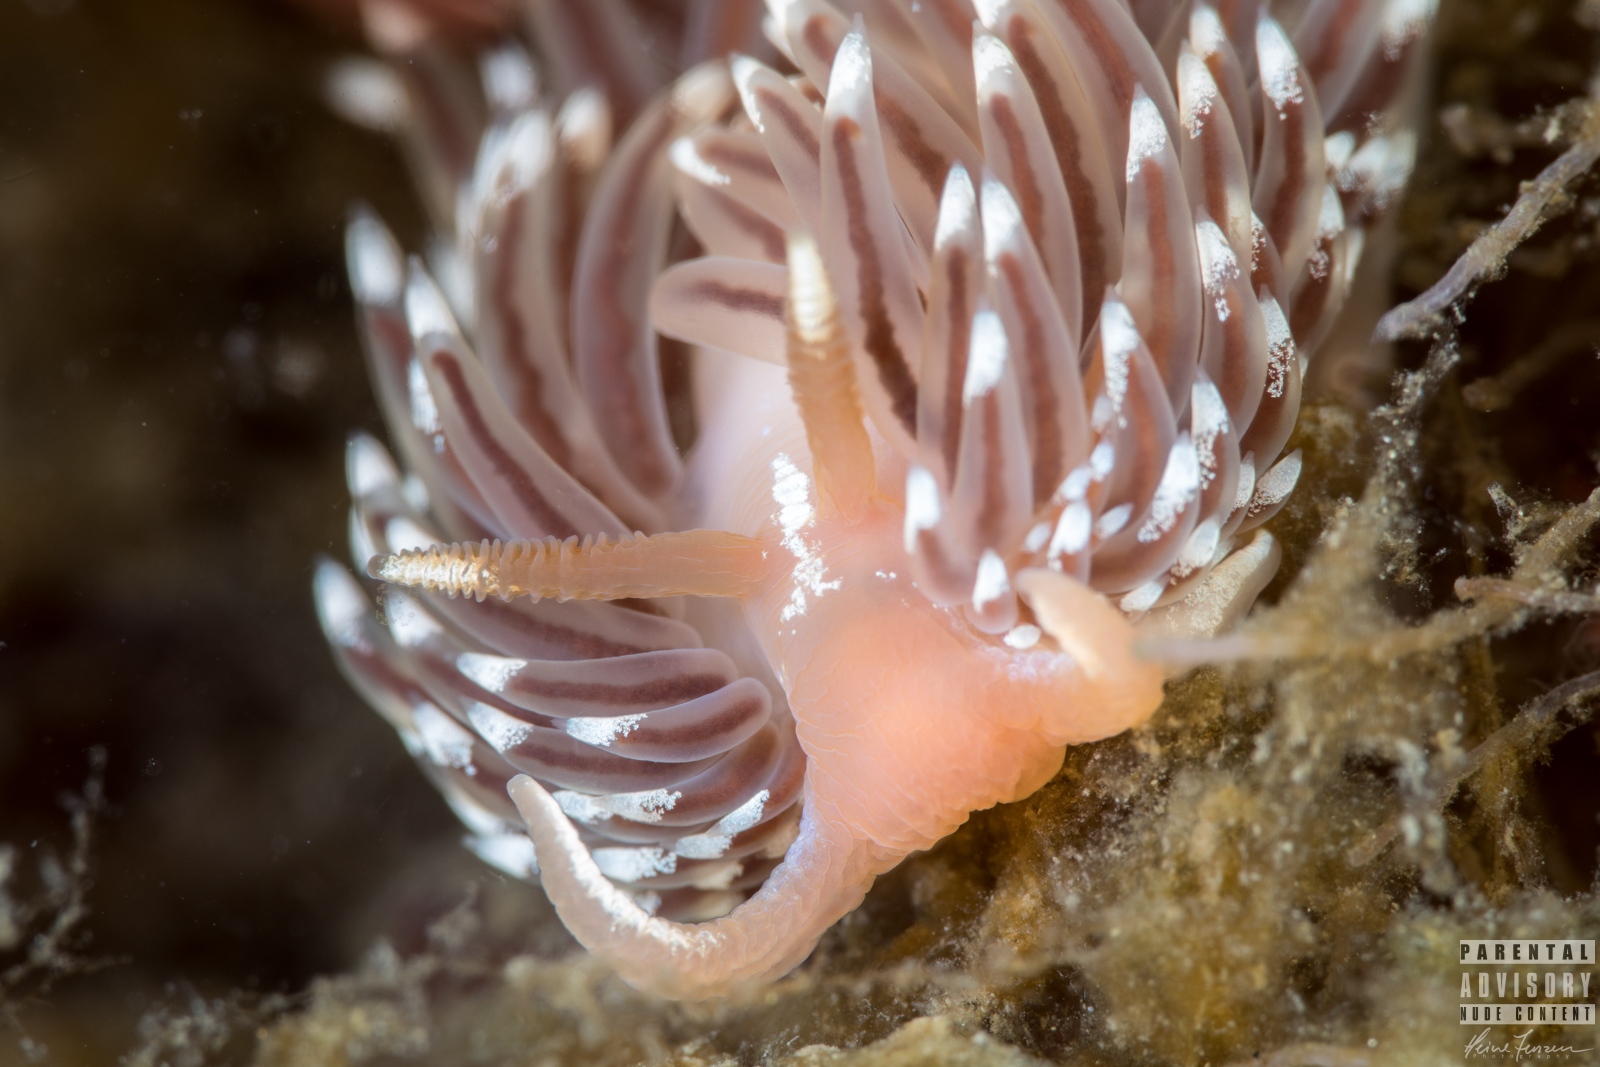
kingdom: Animalia
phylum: Mollusca
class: Gastropoda
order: Nudibranchia
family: Facelinidae
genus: Facelina
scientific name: Facelina bostoniensis
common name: Boston facelina
